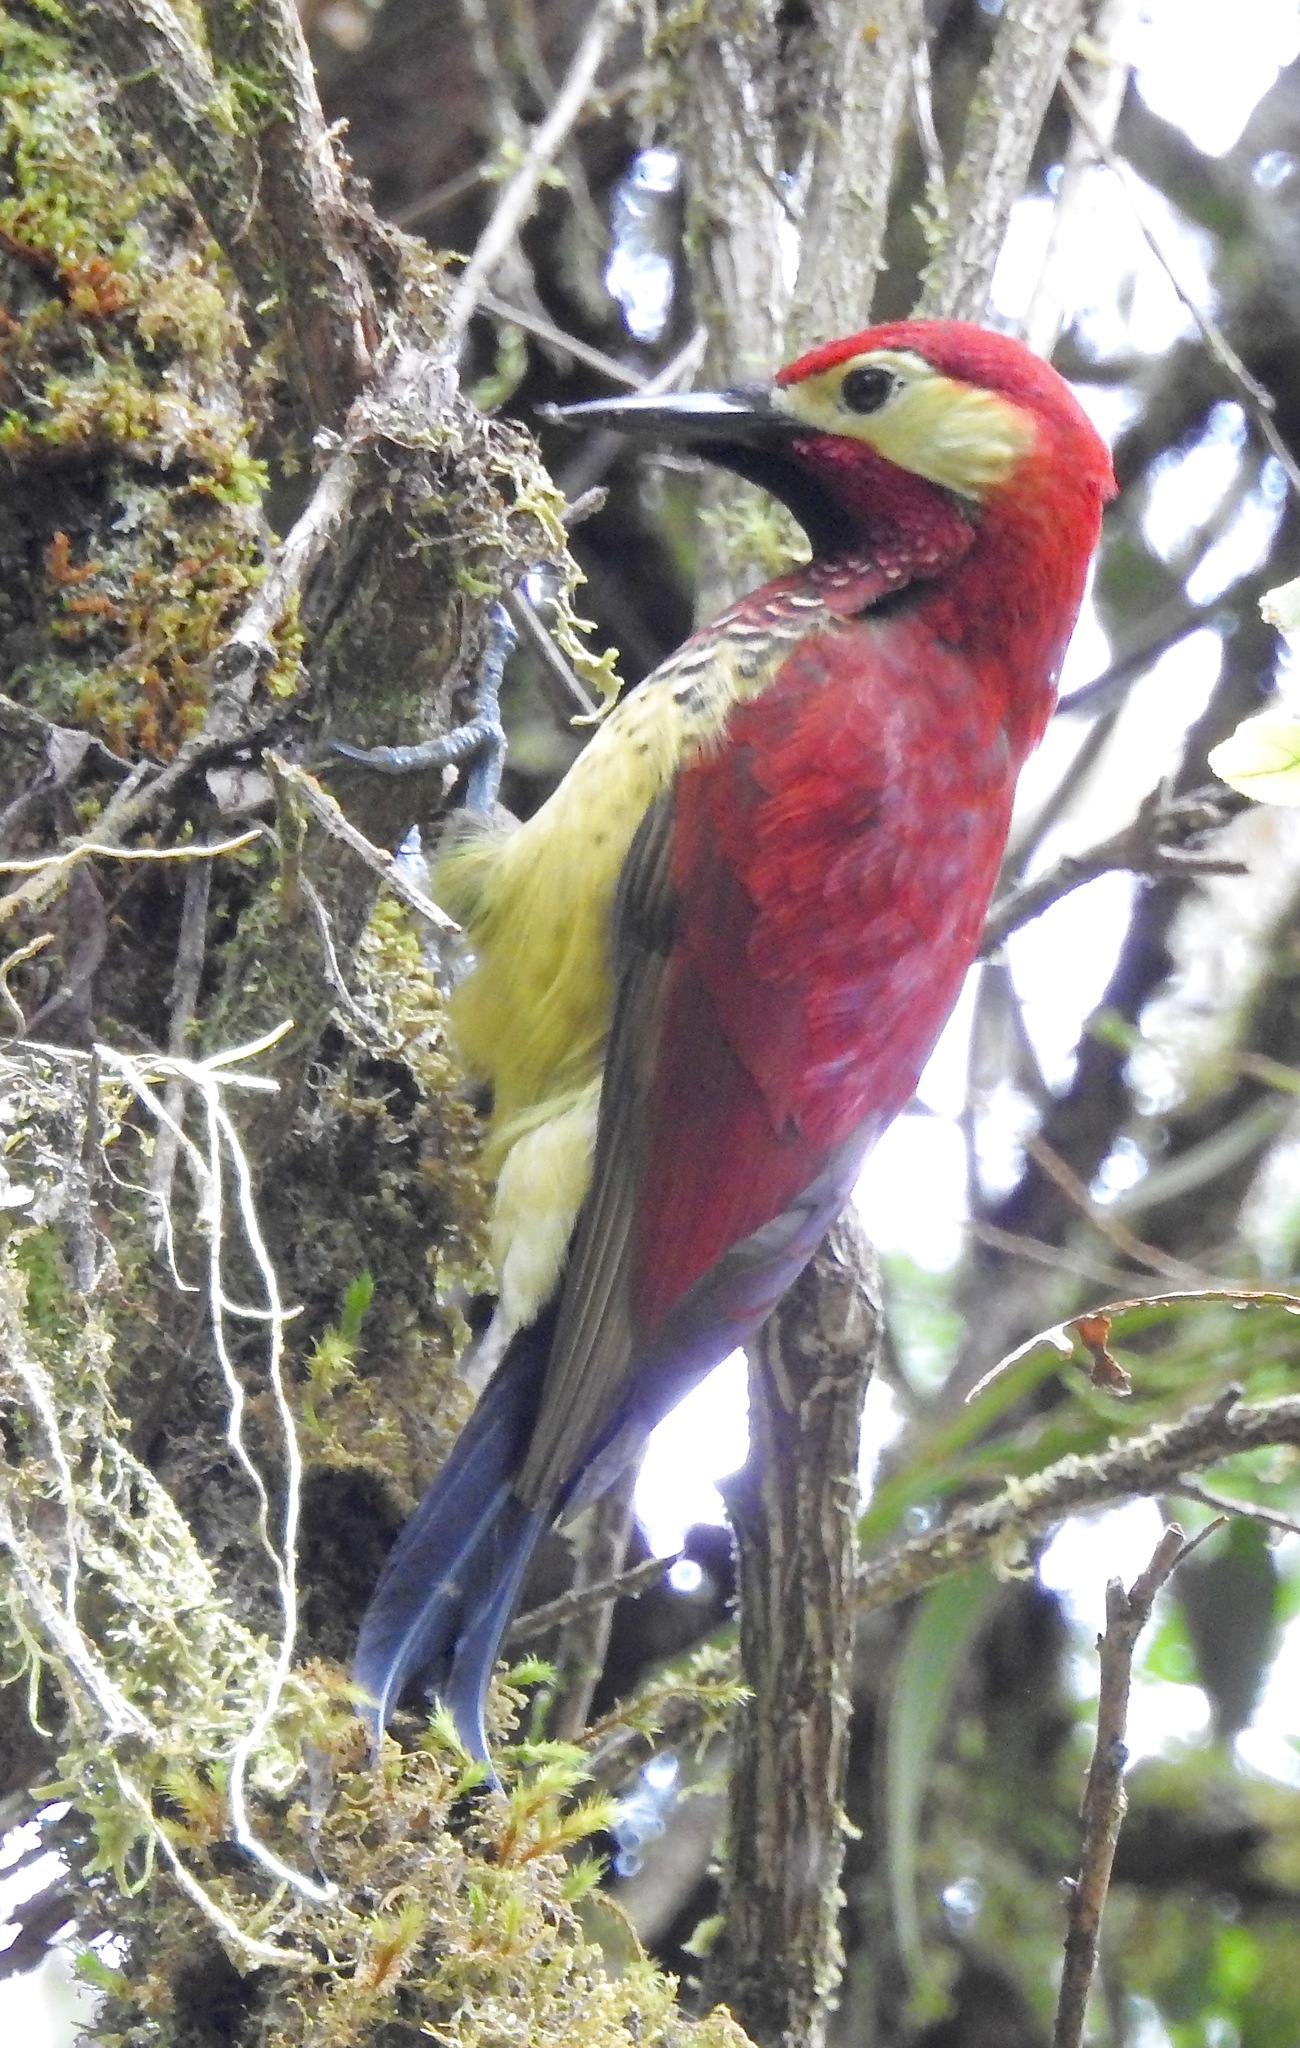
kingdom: Animalia
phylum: Chordata
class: Aves
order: Piciformes
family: Picidae
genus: Colaptes
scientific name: Colaptes rivolii
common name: Crimson-mantled woodpecker
